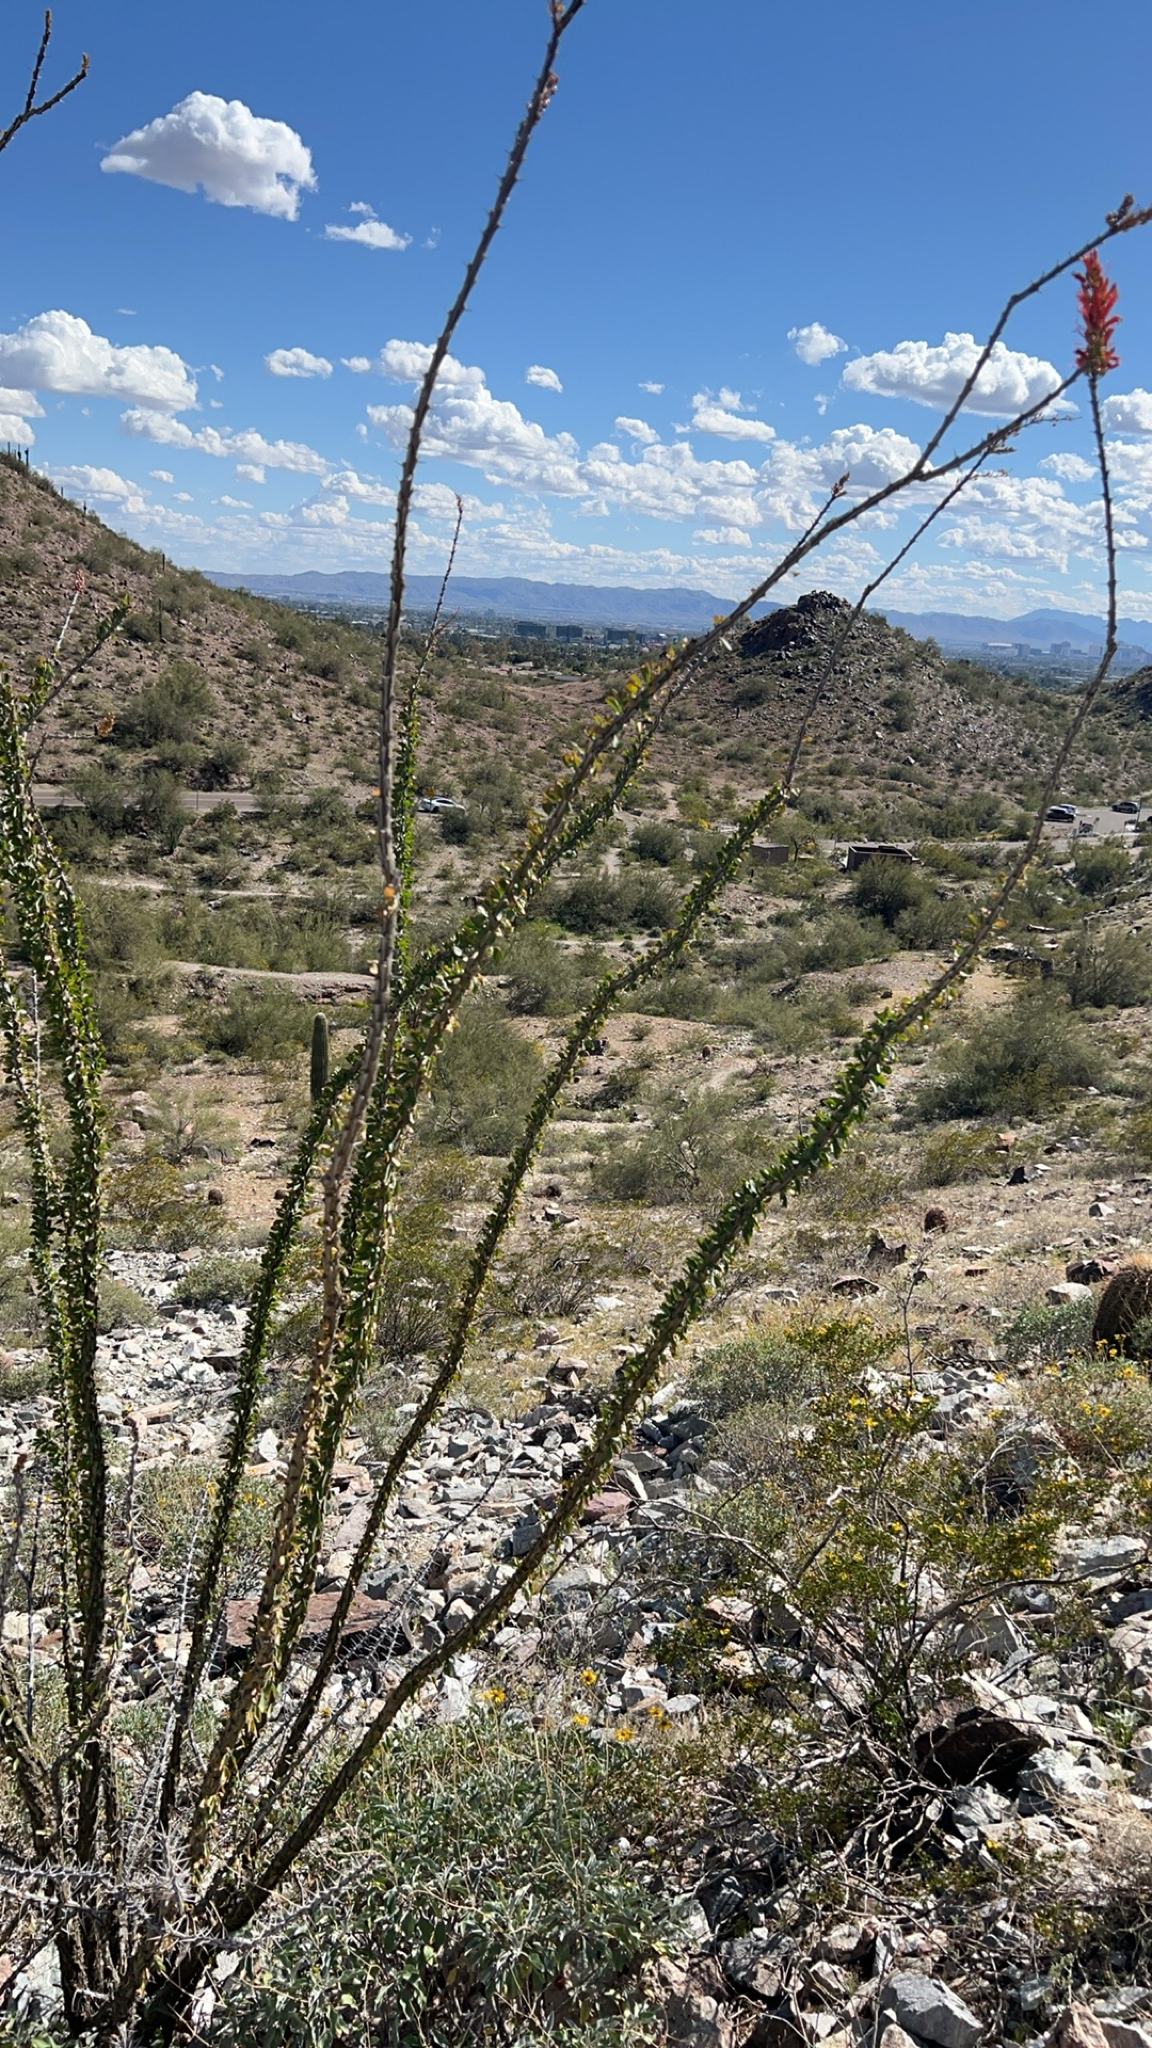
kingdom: Plantae
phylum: Tracheophyta
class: Magnoliopsida
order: Ericales
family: Fouquieriaceae
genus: Fouquieria
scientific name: Fouquieria splendens
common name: Vine-cactus
